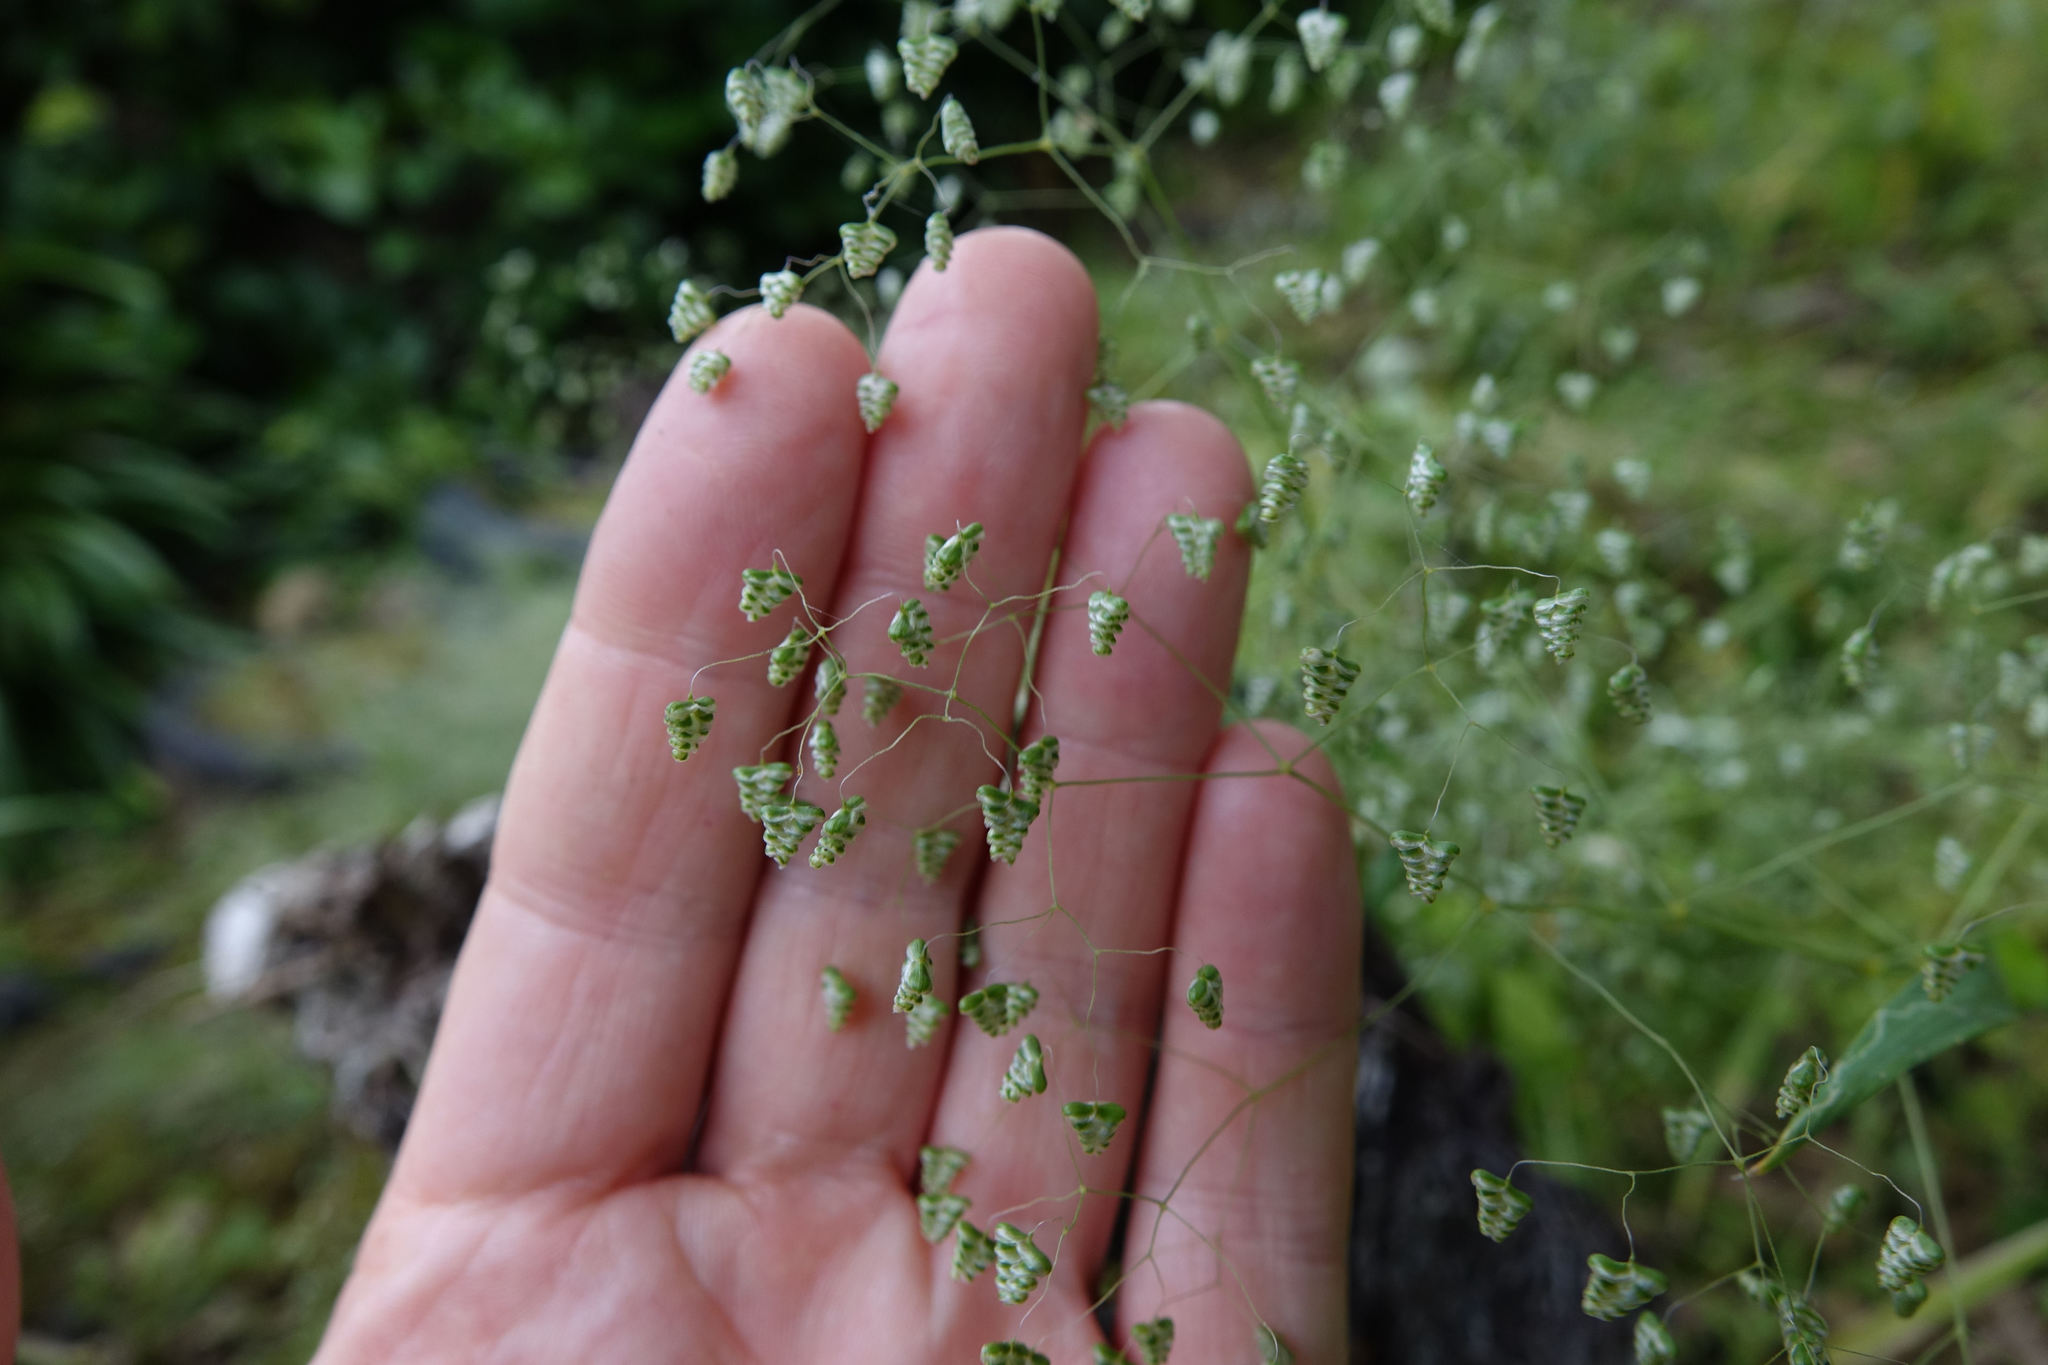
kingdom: Plantae
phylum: Tracheophyta
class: Liliopsida
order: Poales
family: Poaceae
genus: Briza
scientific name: Briza minor
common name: Lesser quaking-grass
